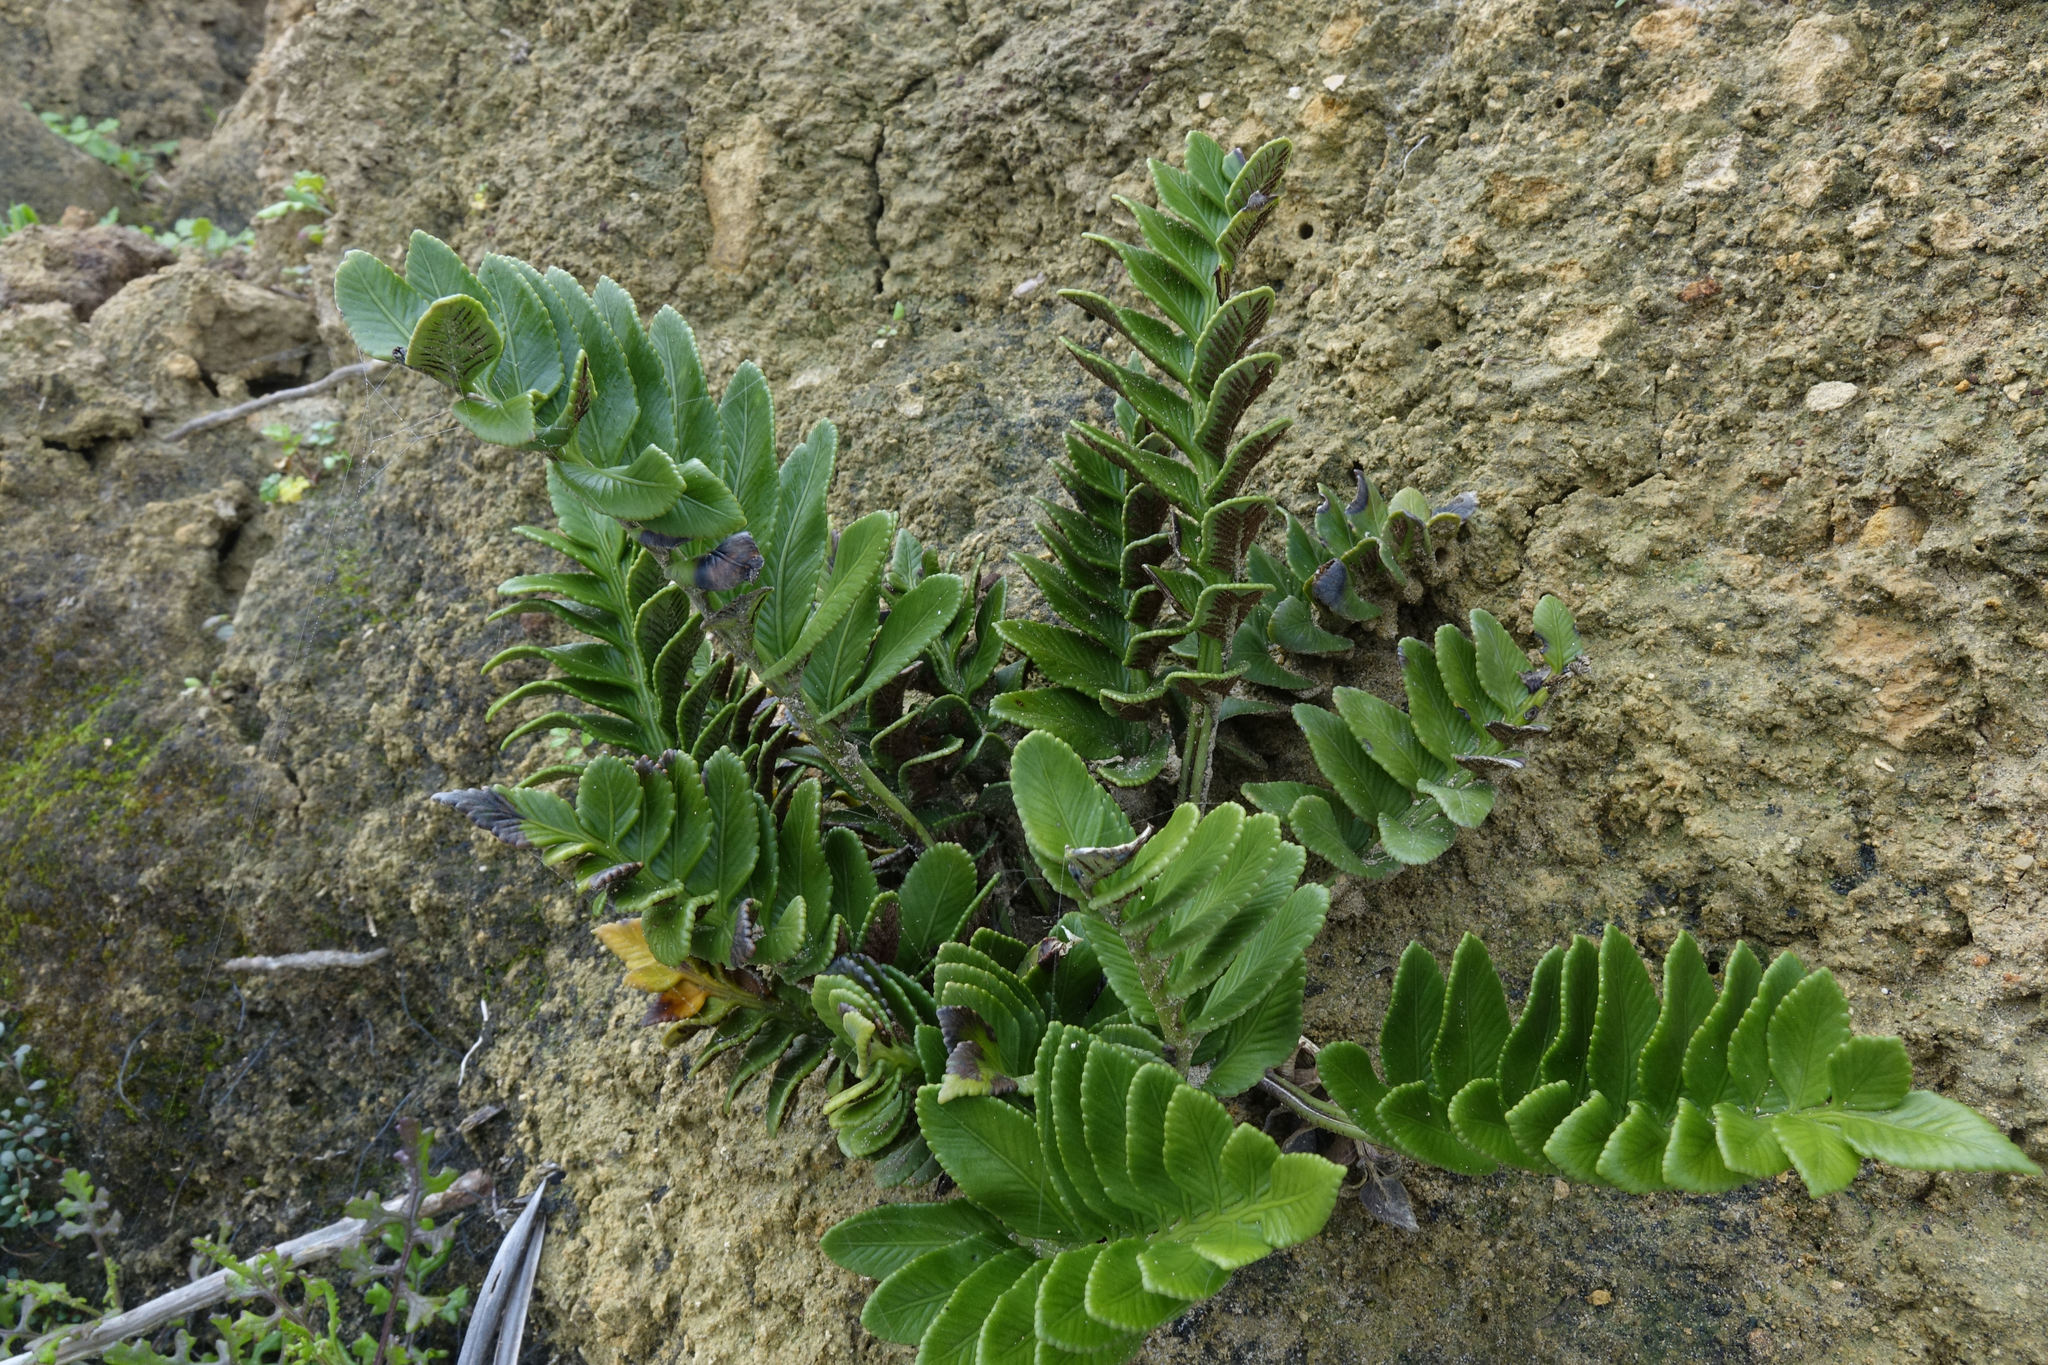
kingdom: Plantae
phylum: Tracheophyta
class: Polypodiopsida
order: Polypodiales
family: Aspleniaceae
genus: Asplenium
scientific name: Asplenium obtusatum
